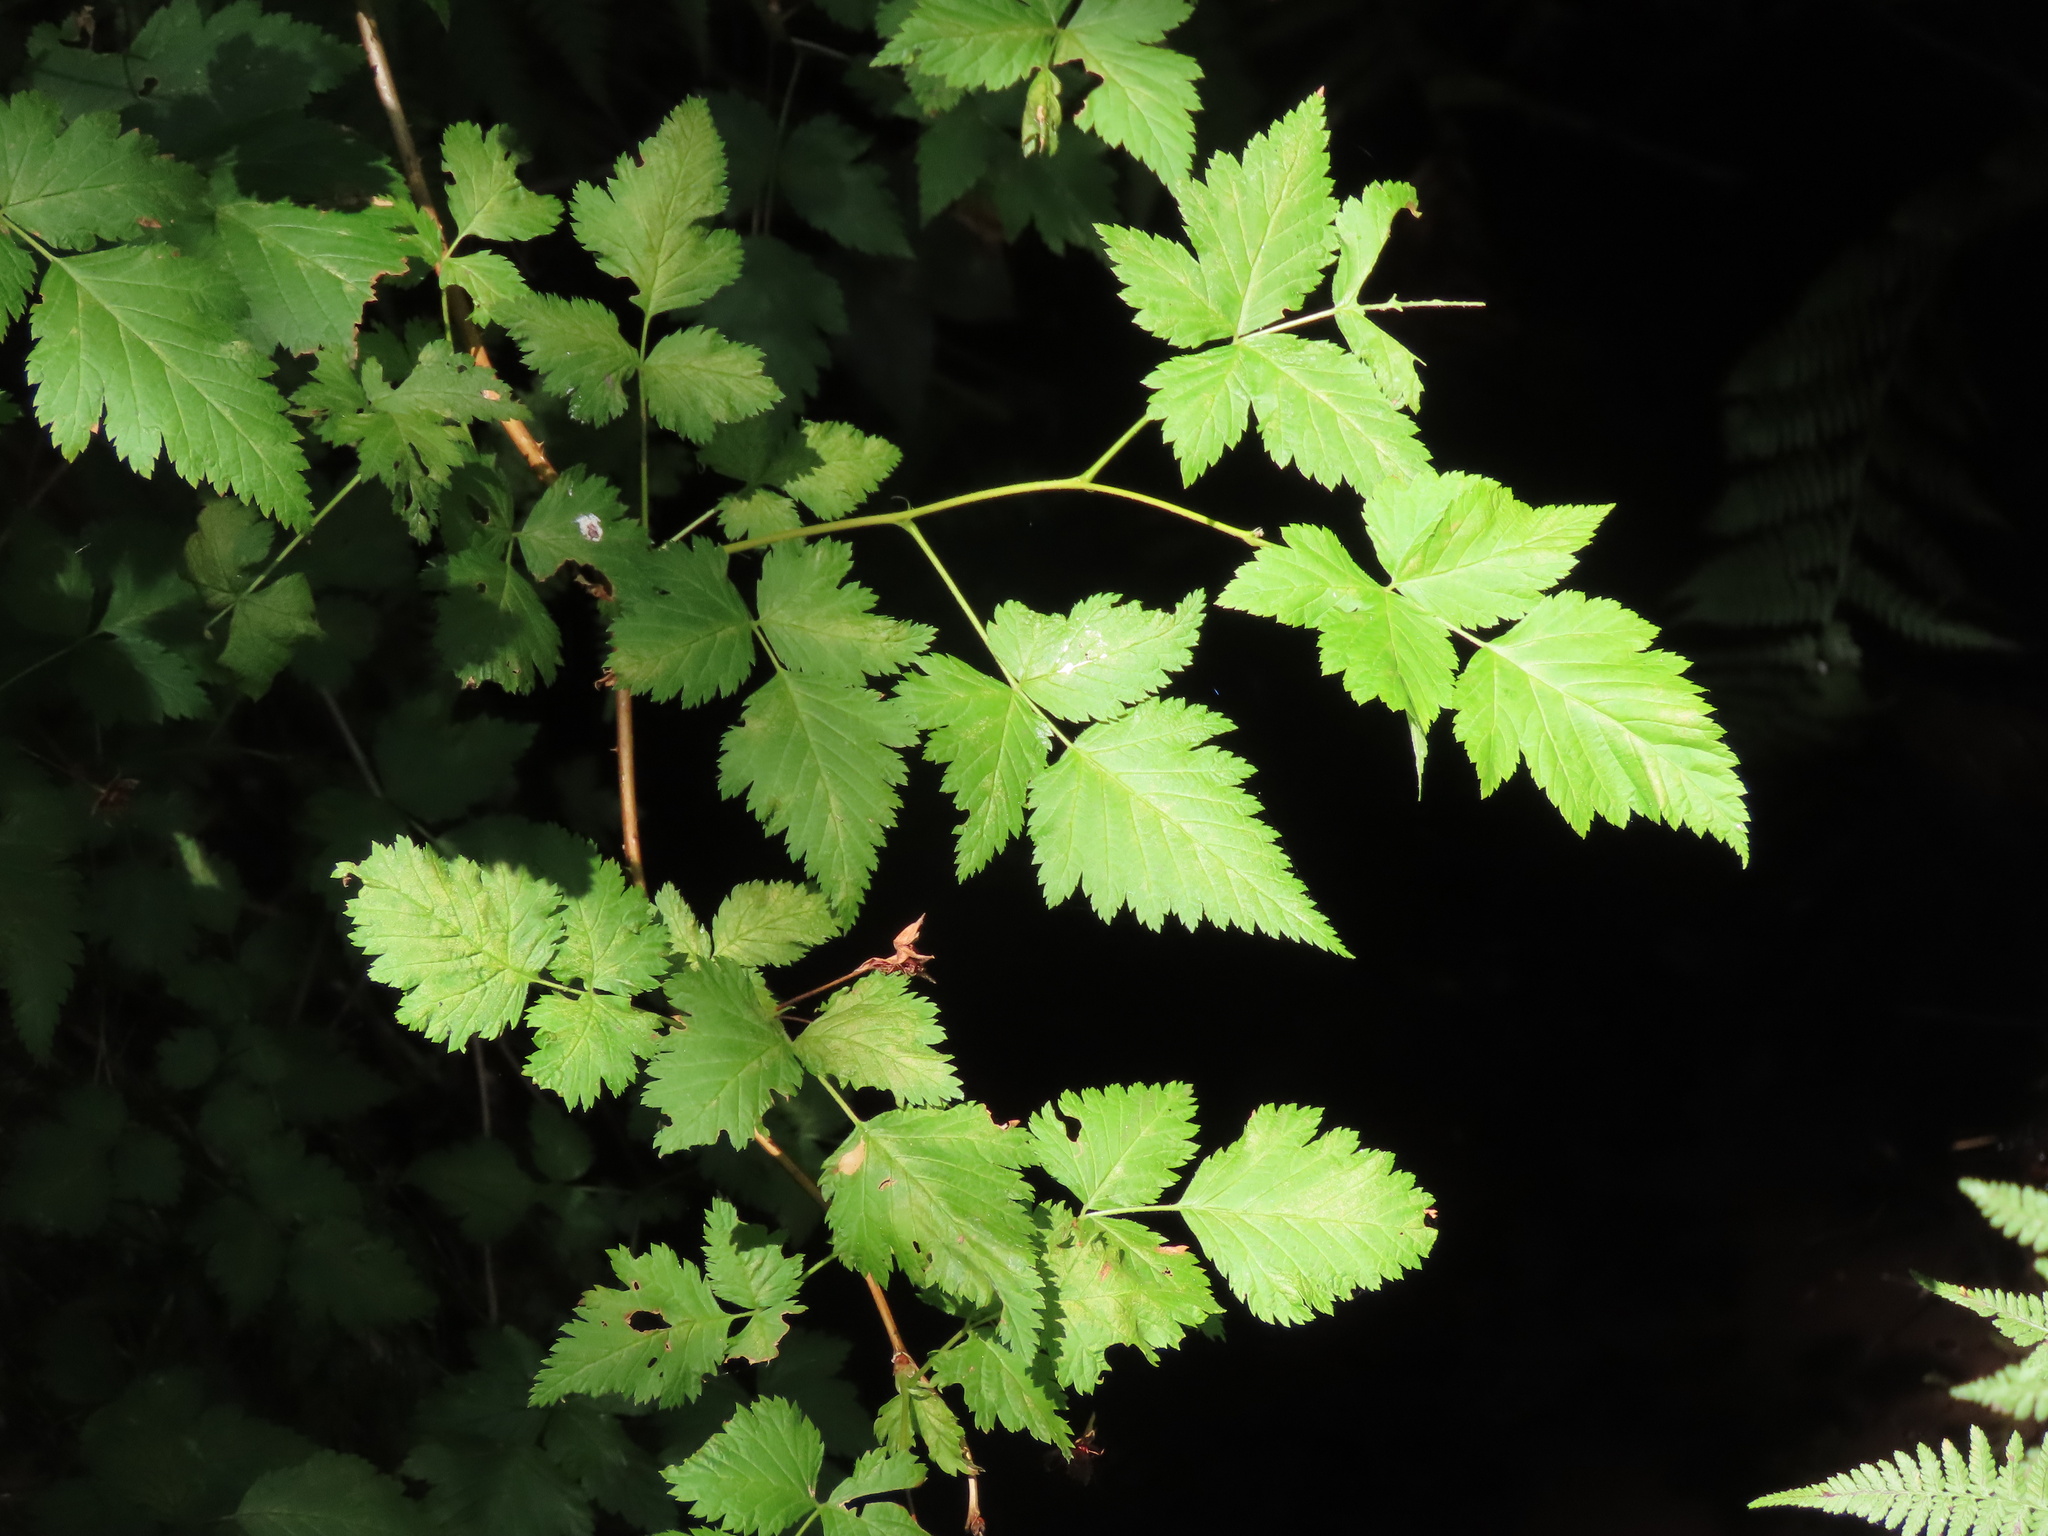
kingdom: Plantae
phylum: Tracheophyta
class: Magnoliopsida
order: Rosales
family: Rosaceae
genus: Rubus
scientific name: Rubus spectabilis
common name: Salmonberry
